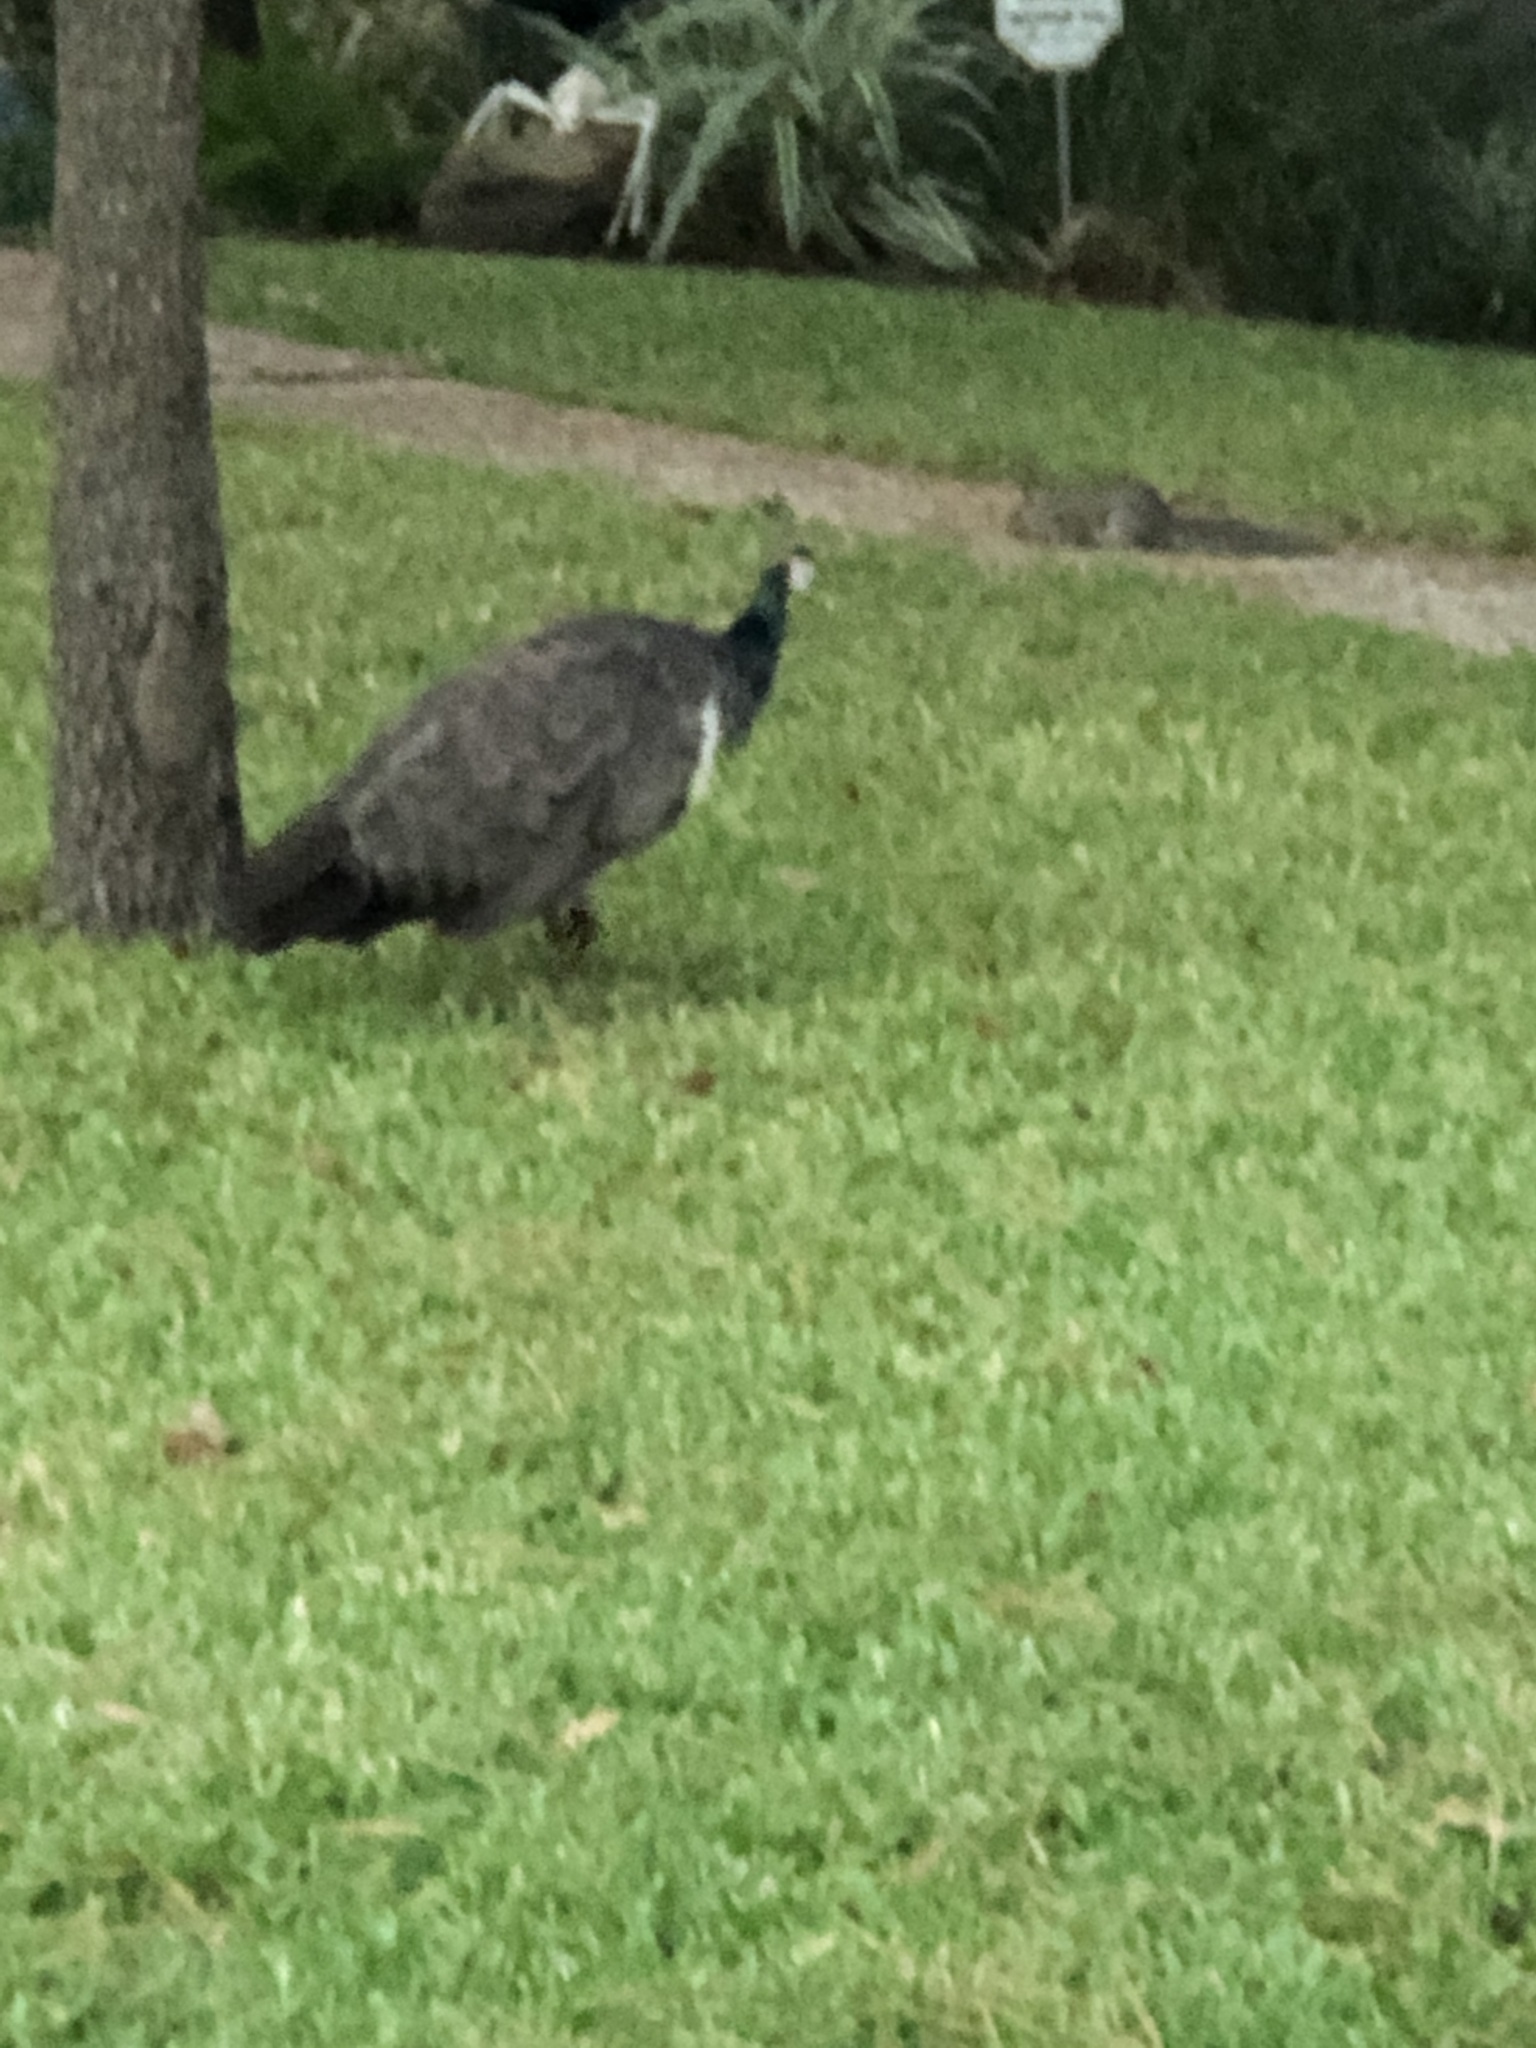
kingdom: Animalia
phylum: Chordata
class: Aves
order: Galliformes
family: Phasianidae
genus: Pavo
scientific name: Pavo cristatus
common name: Indian peafowl
